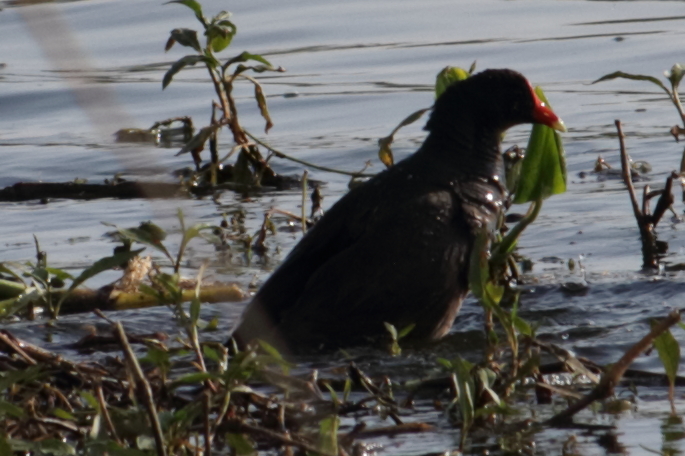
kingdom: Animalia
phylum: Chordata
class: Aves
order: Gruiformes
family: Rallidae
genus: Gallinula
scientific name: Gallinula chloropus
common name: Common moorhen
